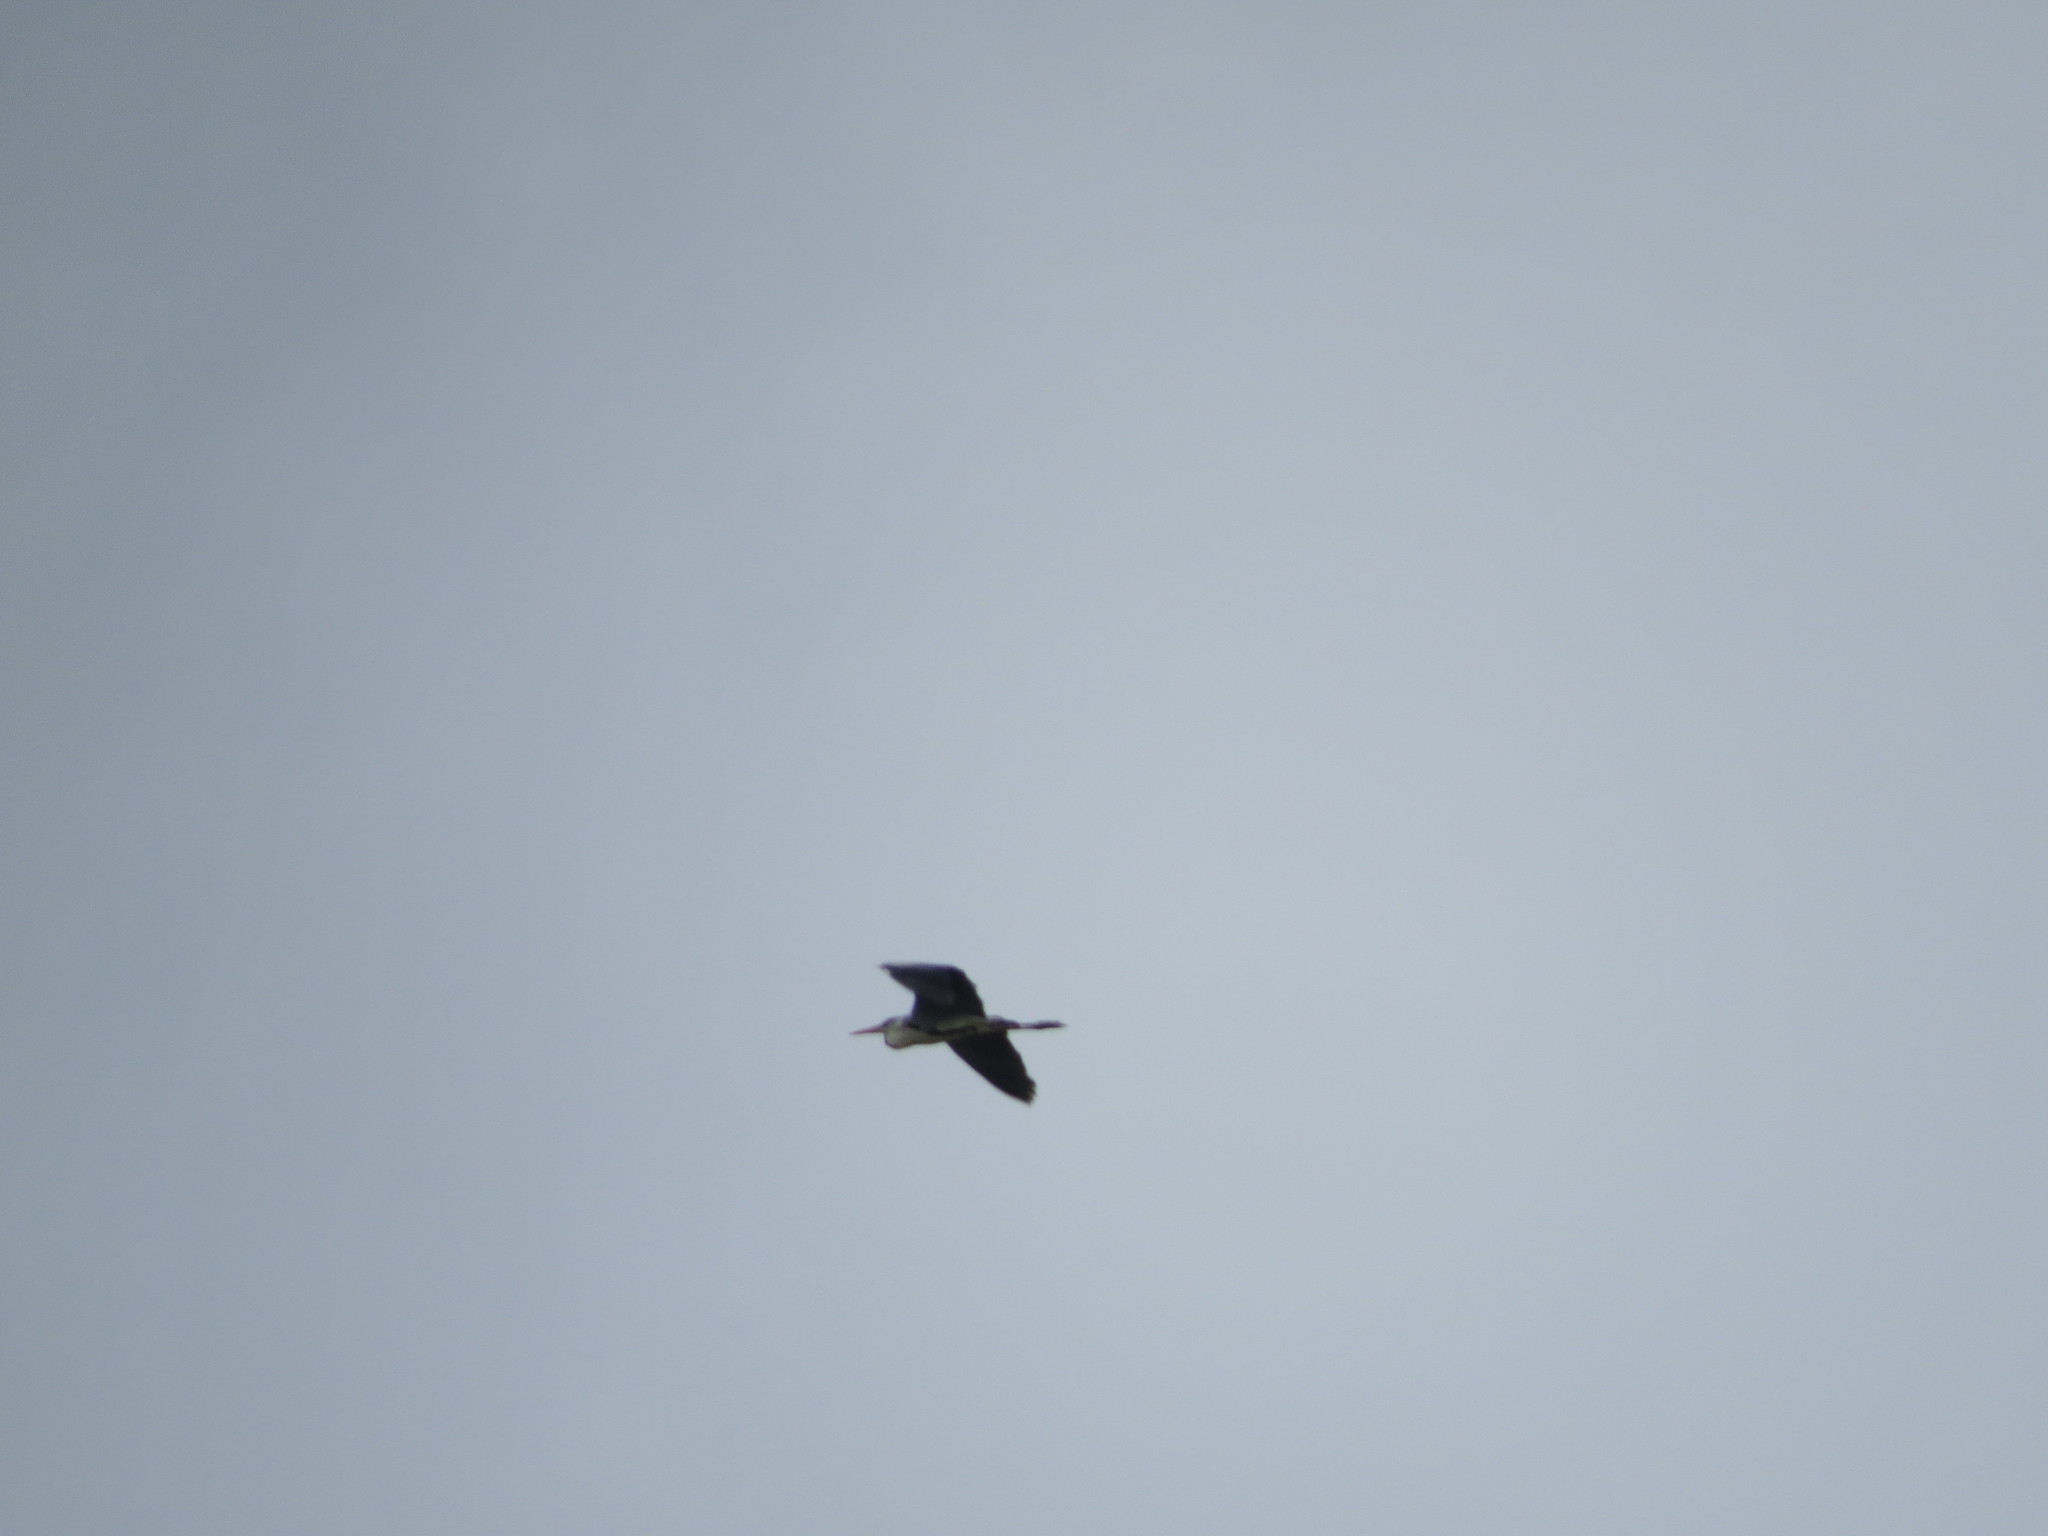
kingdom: Animalia
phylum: Chordata
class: Aves
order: Pelecaniformes
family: Ardeidae
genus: Ardea
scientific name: Ardea cinerea
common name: Grey heron
